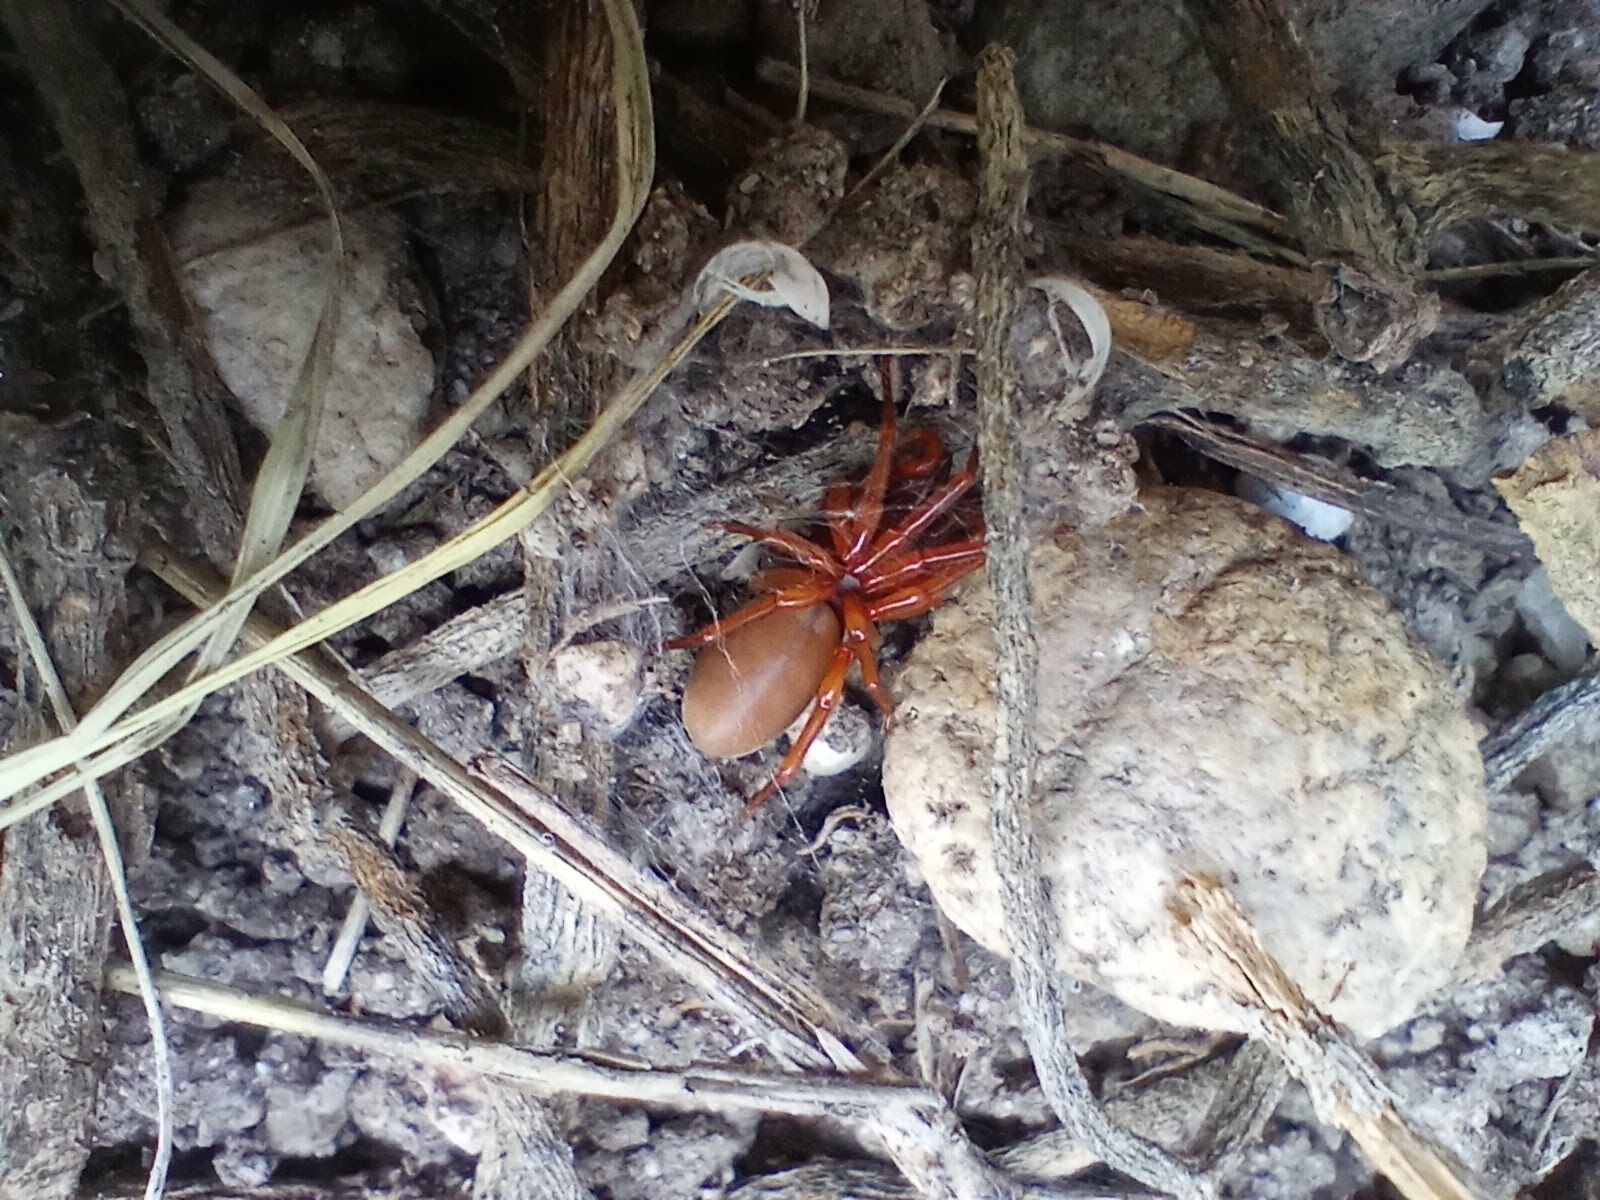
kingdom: Animalia
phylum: Arthropoda
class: Arachnida
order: Araneae
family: Dysderidae
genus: Dysdera
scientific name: Dysdera crocata
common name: Woodlouse spider
